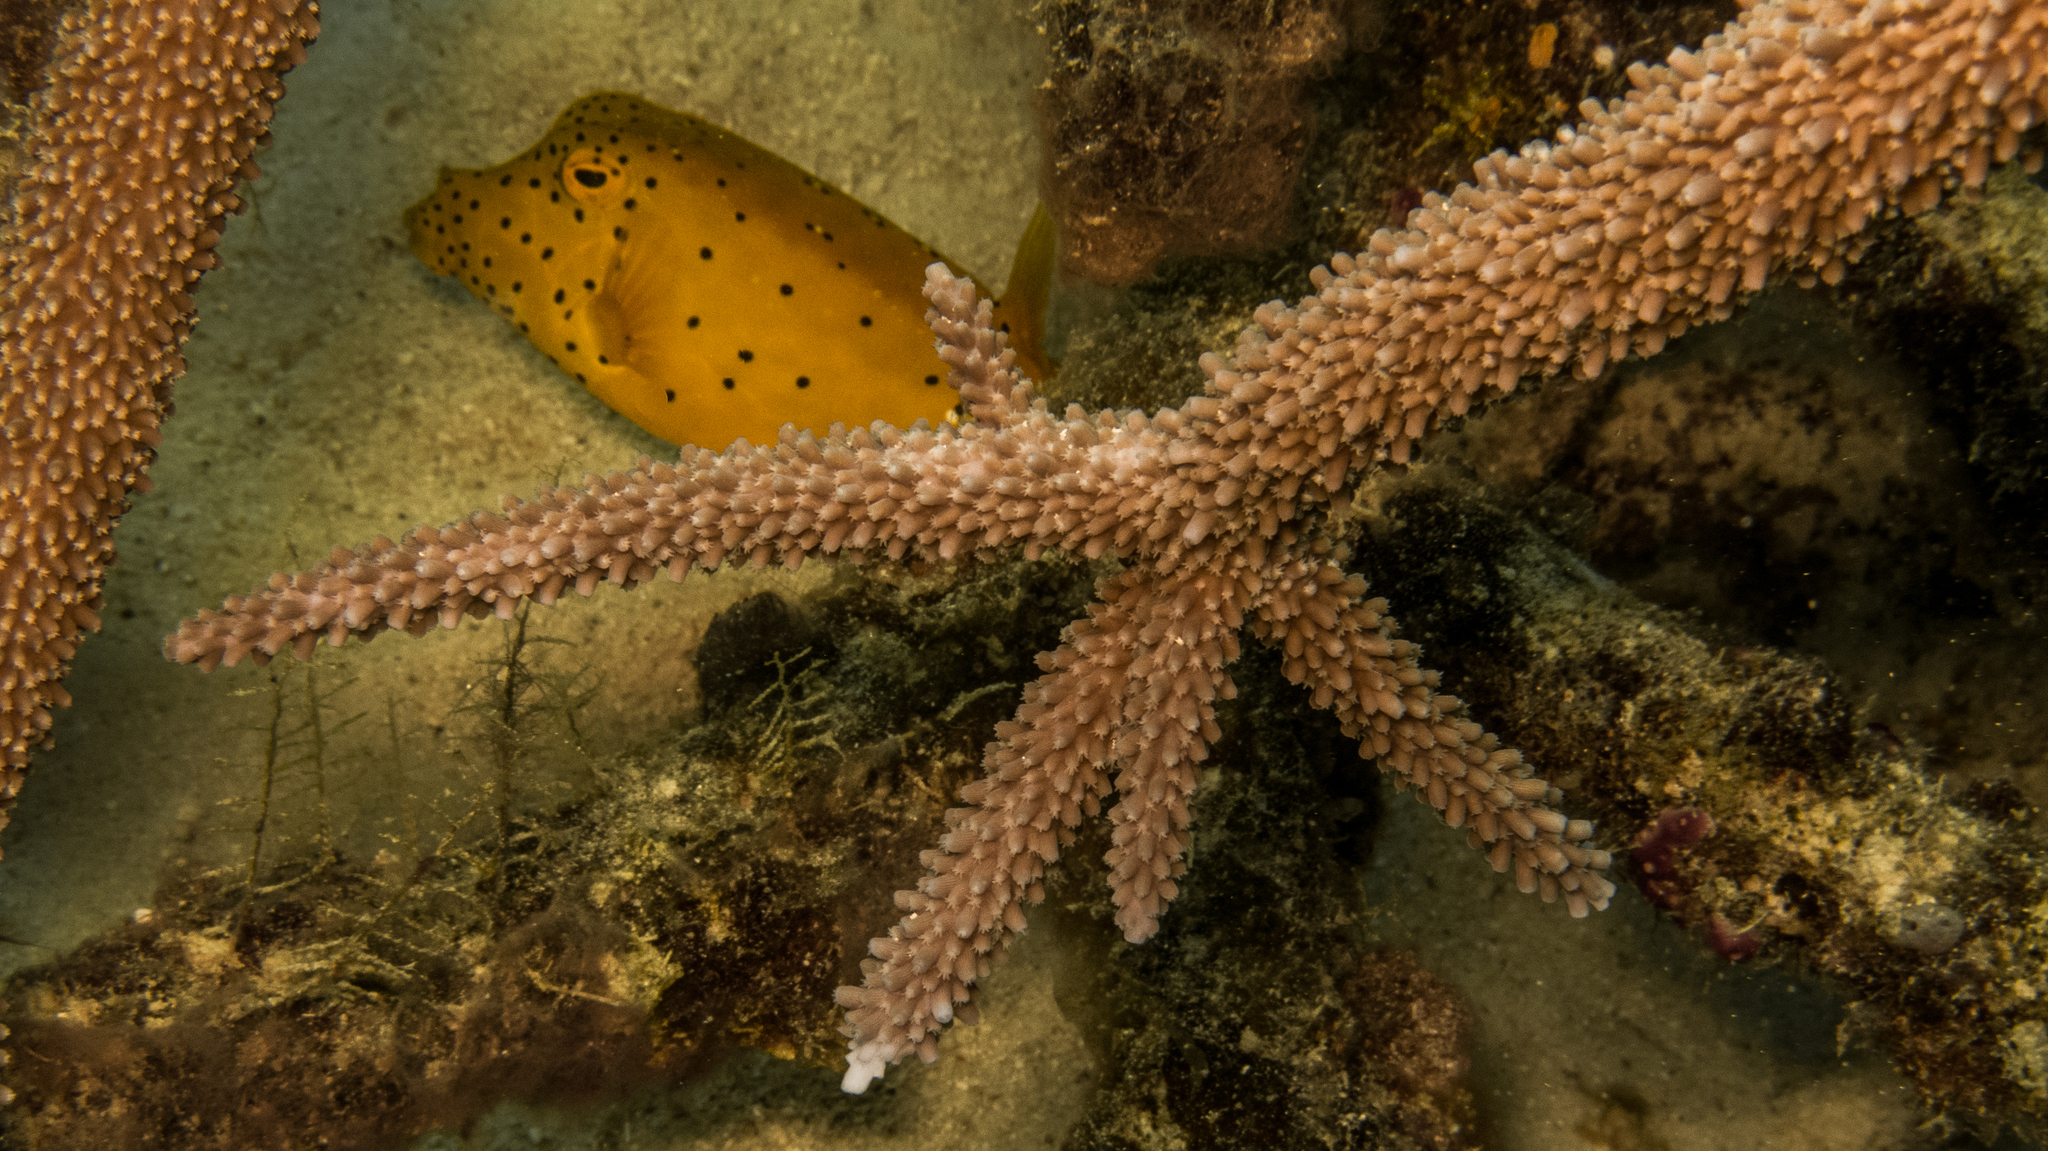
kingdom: Animalia
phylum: Chordata
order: Tetraodontiformes
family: Ostraciidae
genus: Ostracion
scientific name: Ostracion cubicus
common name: Cube trunkfish
